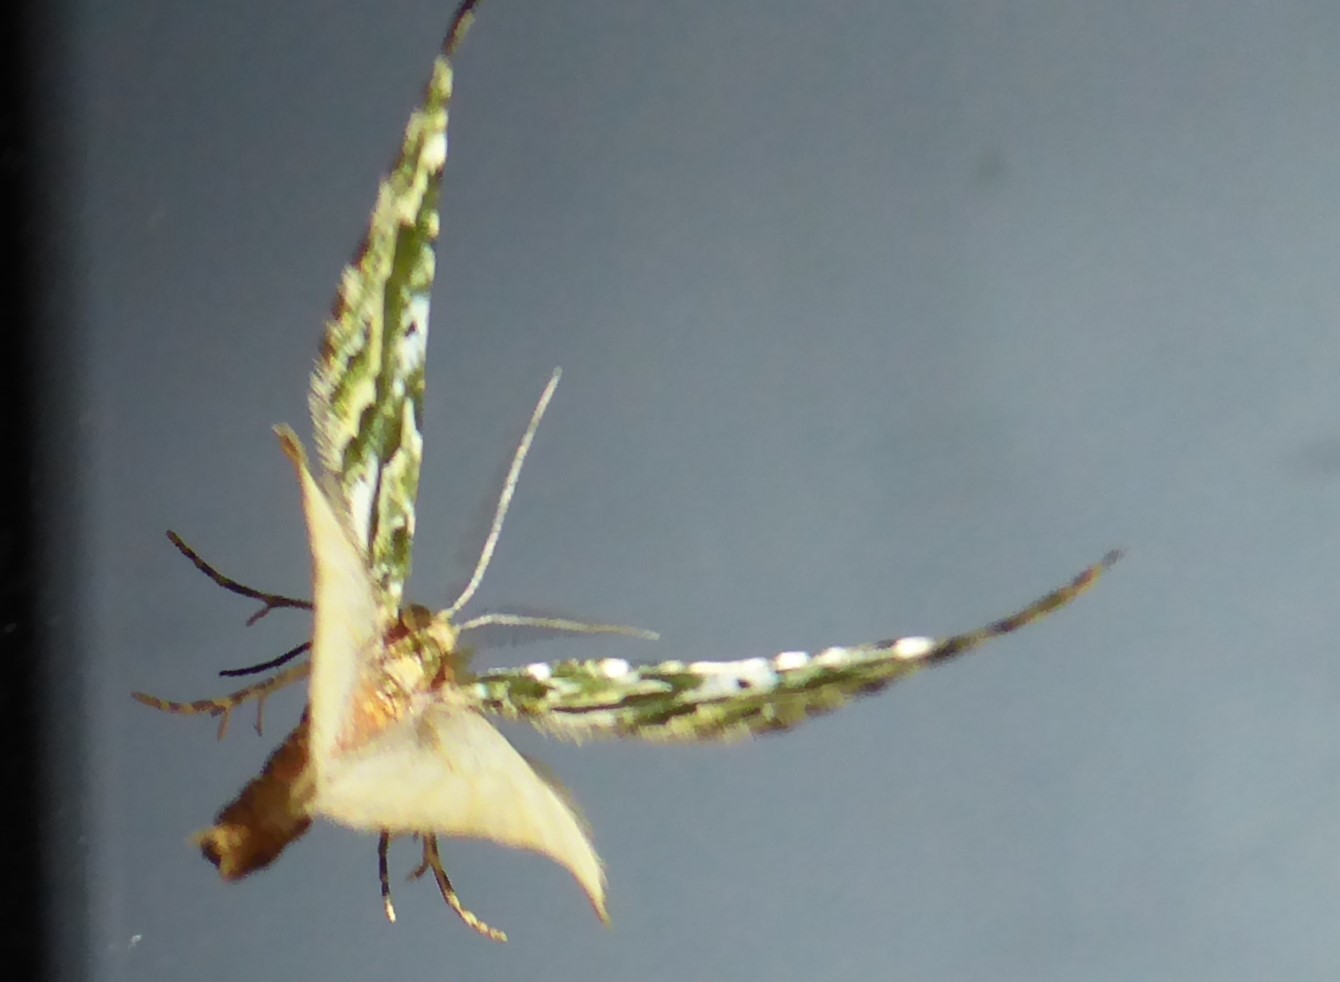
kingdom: Animalia
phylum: Arthropoda
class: Insecta
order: Lepidoptera
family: Geometridae
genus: Asaphodes
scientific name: Asaphodes beata
